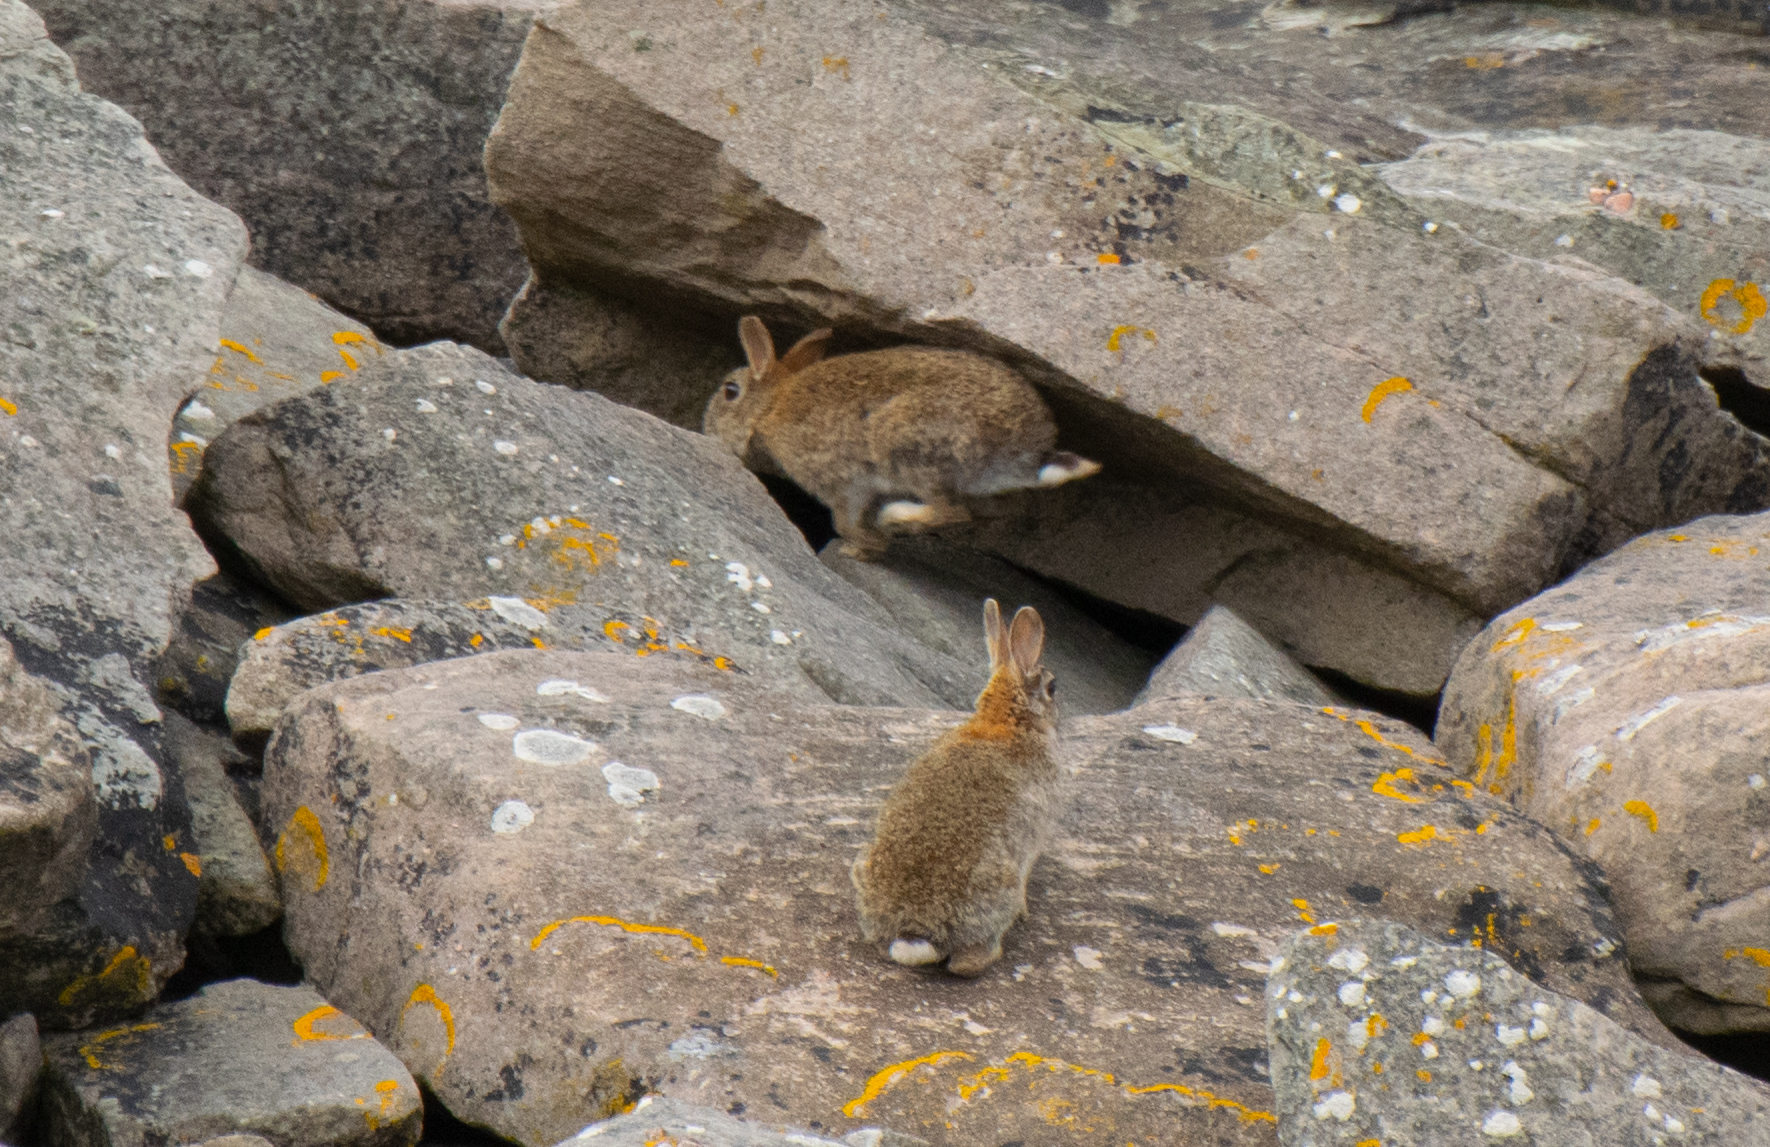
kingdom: Animalia
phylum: Chordata
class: Mammalia
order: Lagomorpha
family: Leporidae
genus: Oryctolagus
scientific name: Oryctolagus cuniculus
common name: European rabbit
